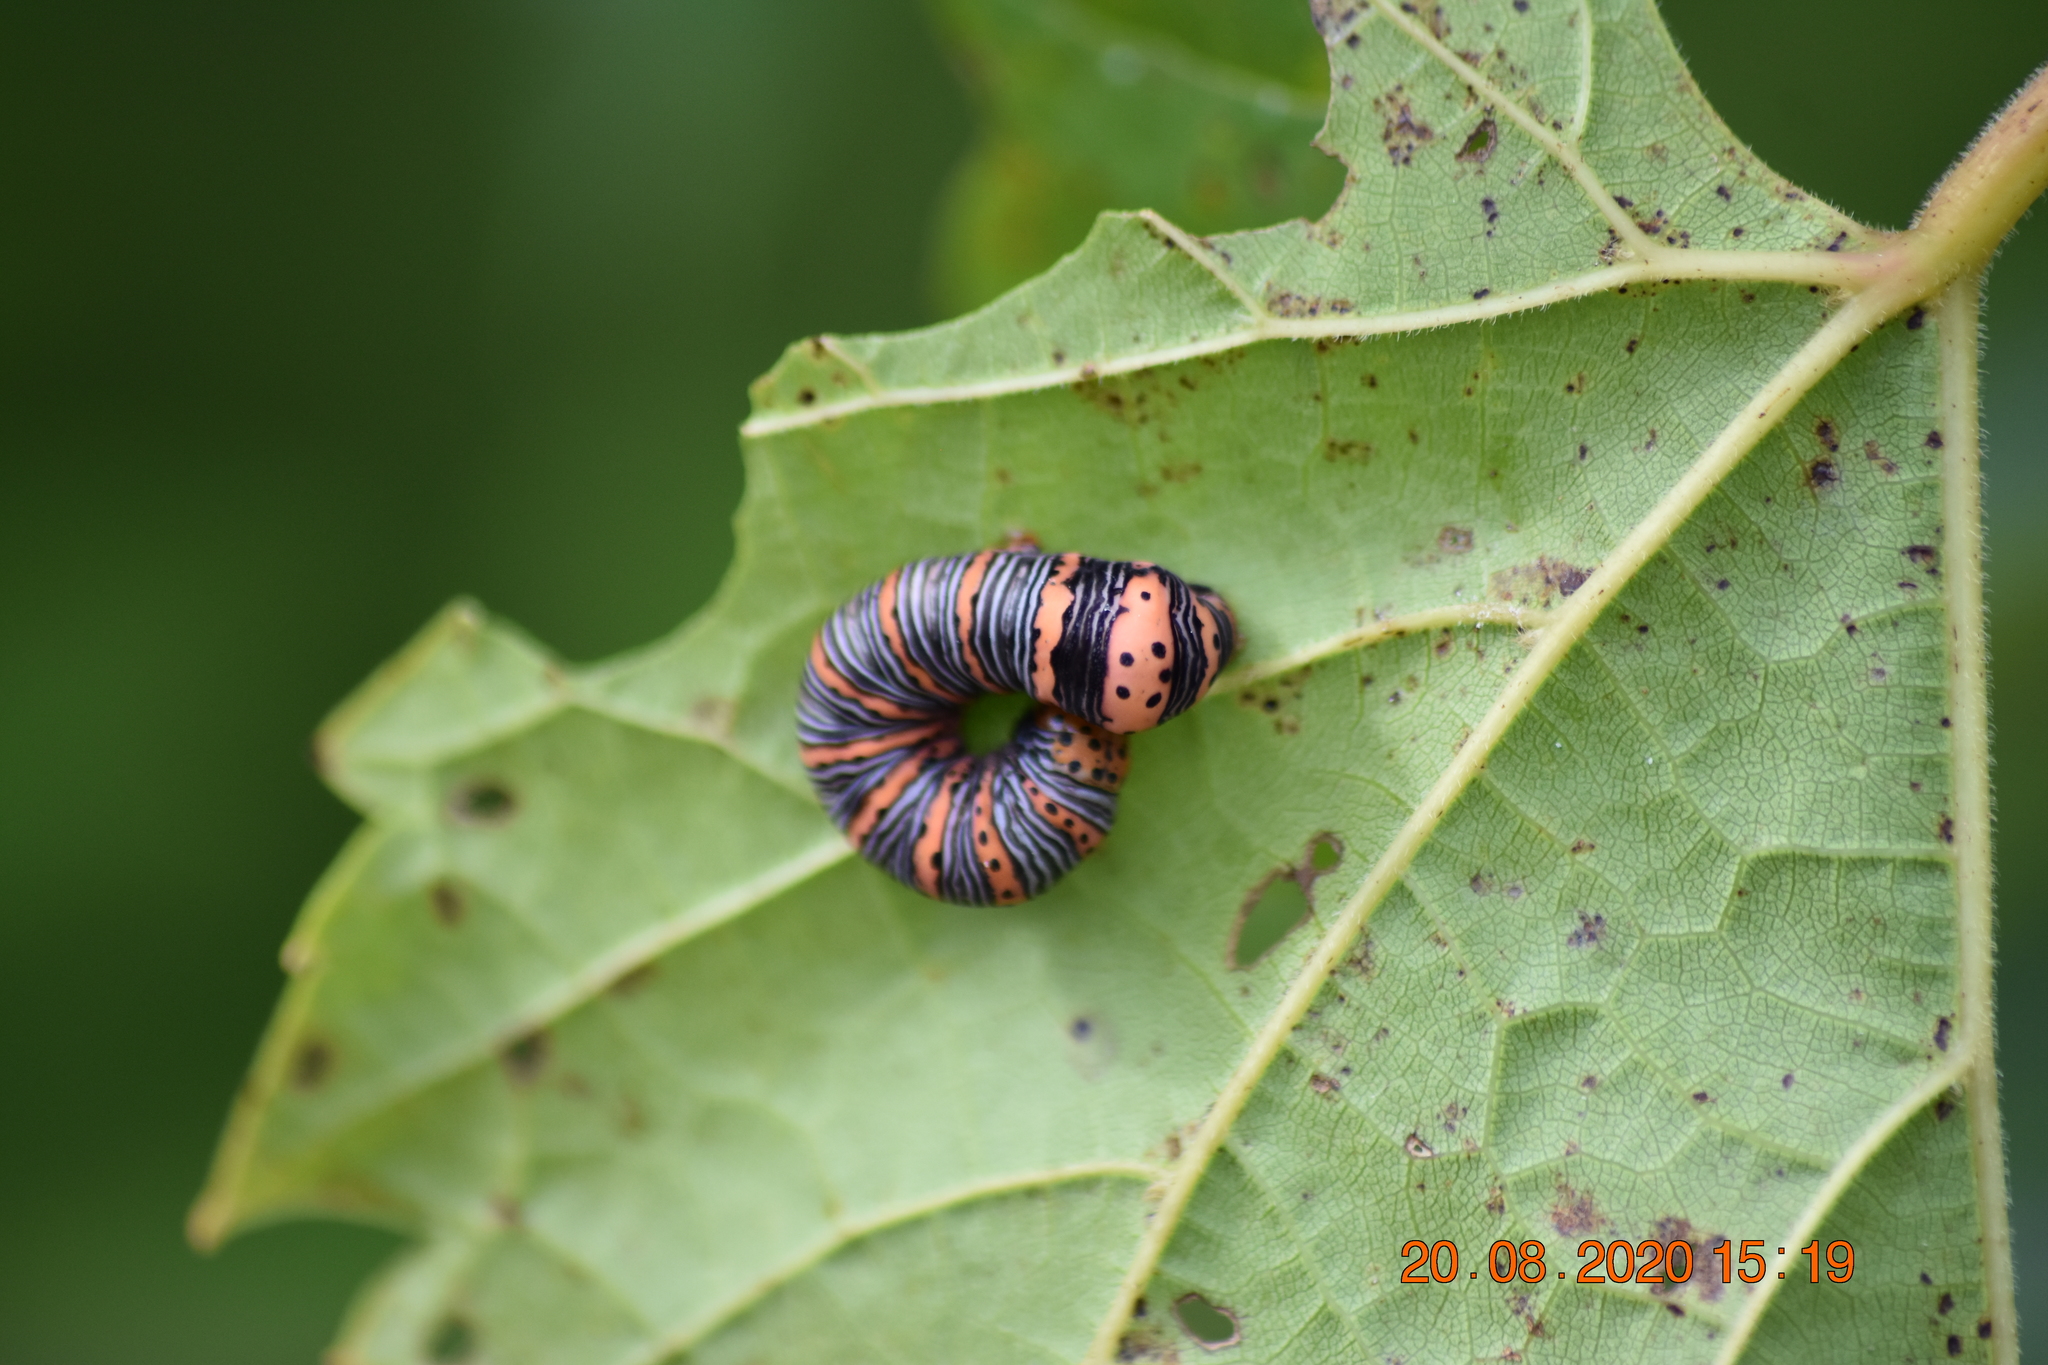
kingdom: Animalia
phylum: Arthropoda
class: Insecta
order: Lepidoptera
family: Noctuidae
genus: Eudryas
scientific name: Eudryas grata
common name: Beautiful wood-nymph
